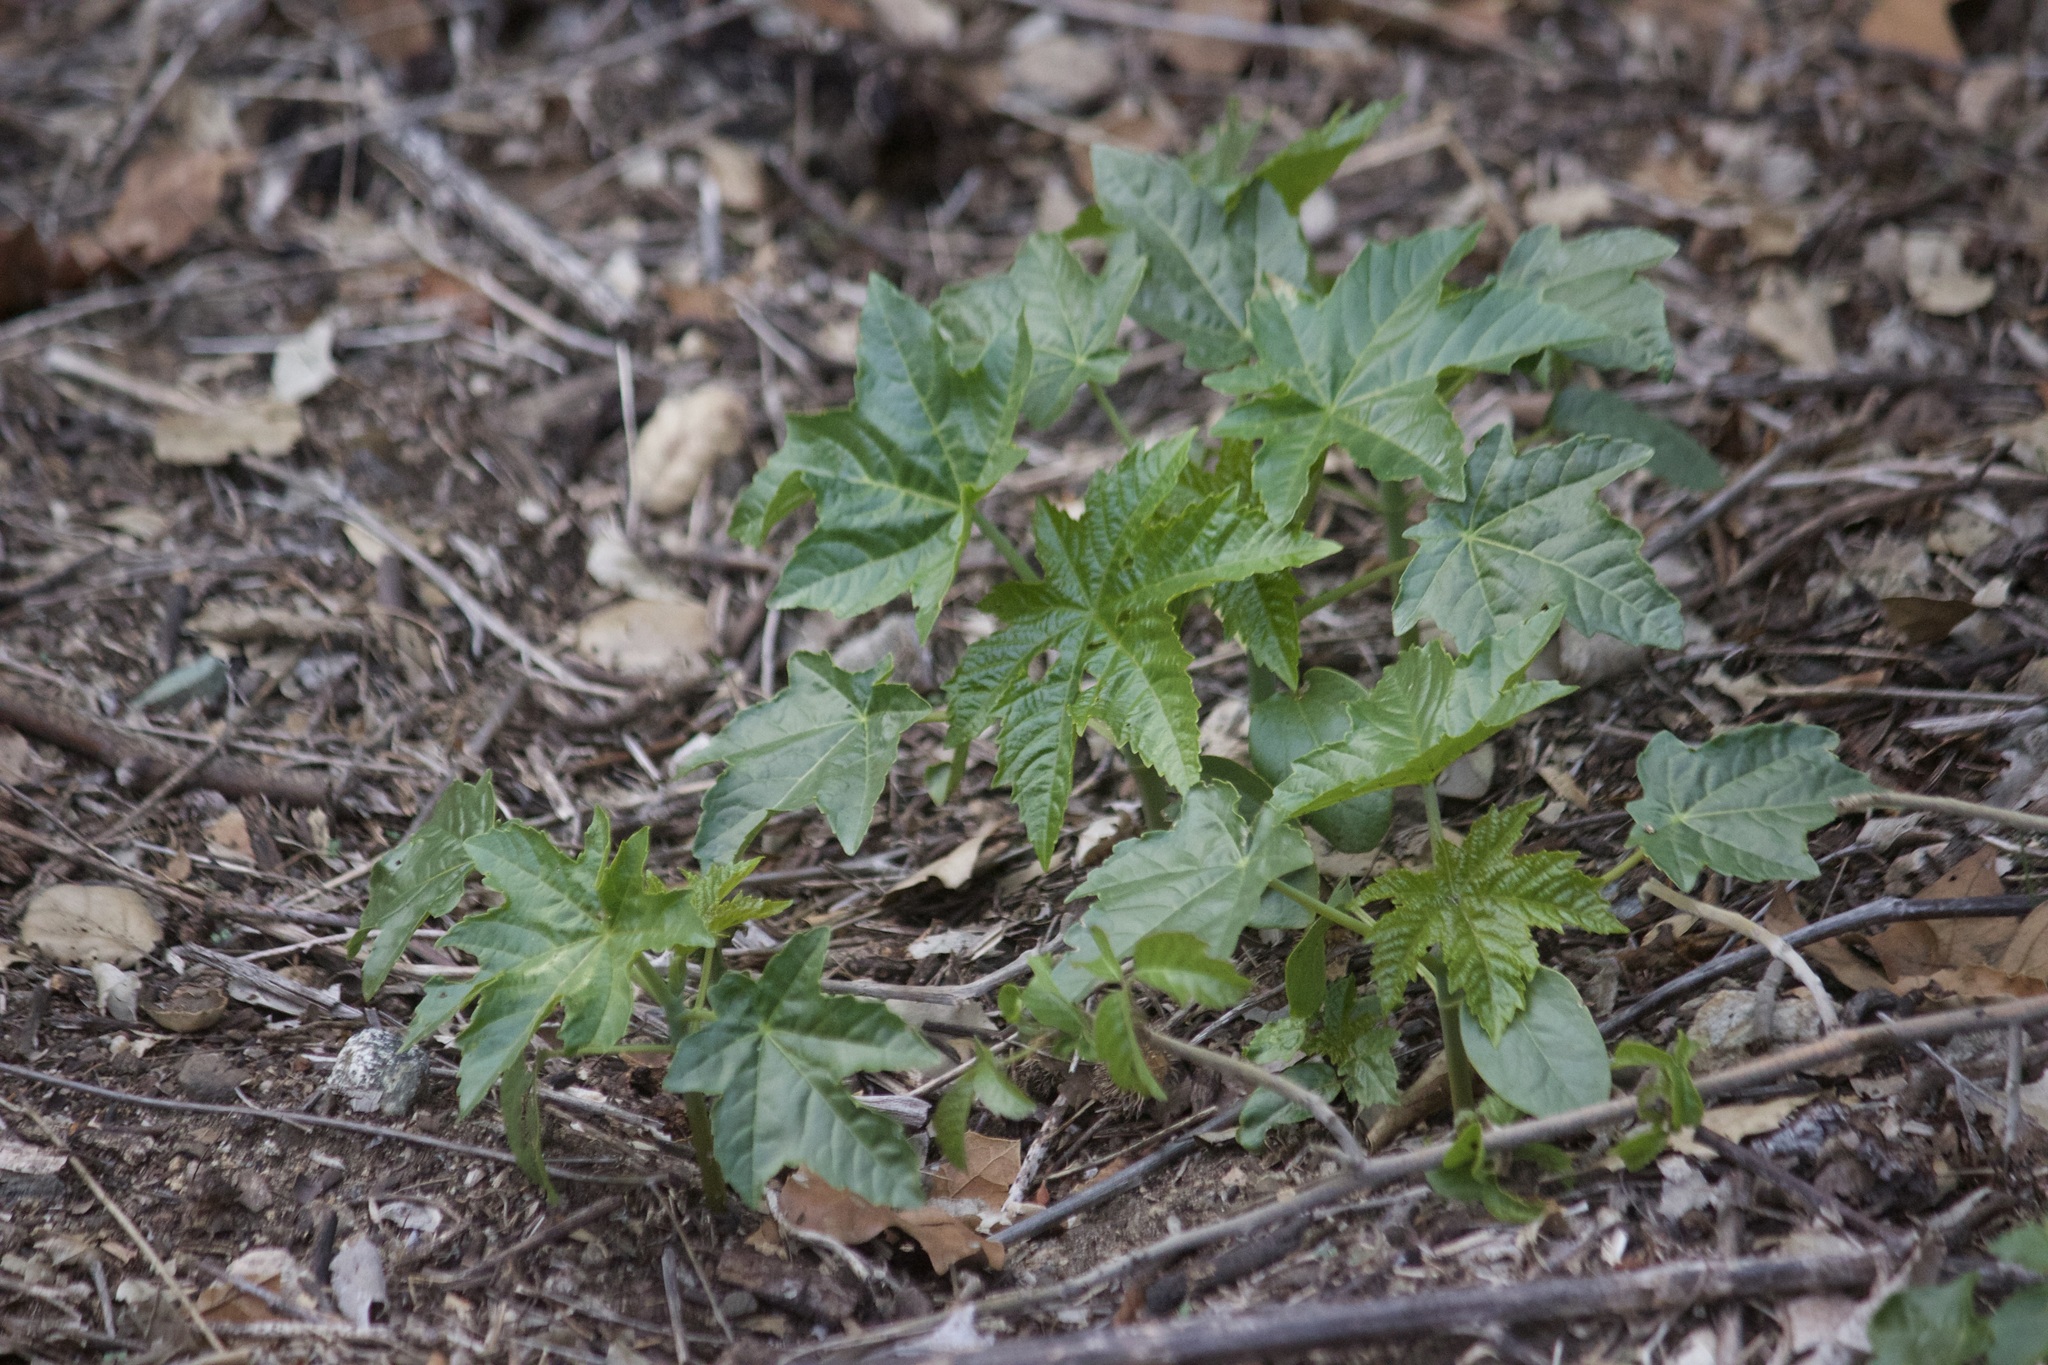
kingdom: Plantae
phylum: Tracheophyta
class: Magnoliopsida
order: Malpighiales
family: Euphorbiaceae
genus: Ricinus
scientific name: Ricinus communis
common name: Castor-oil-plant
